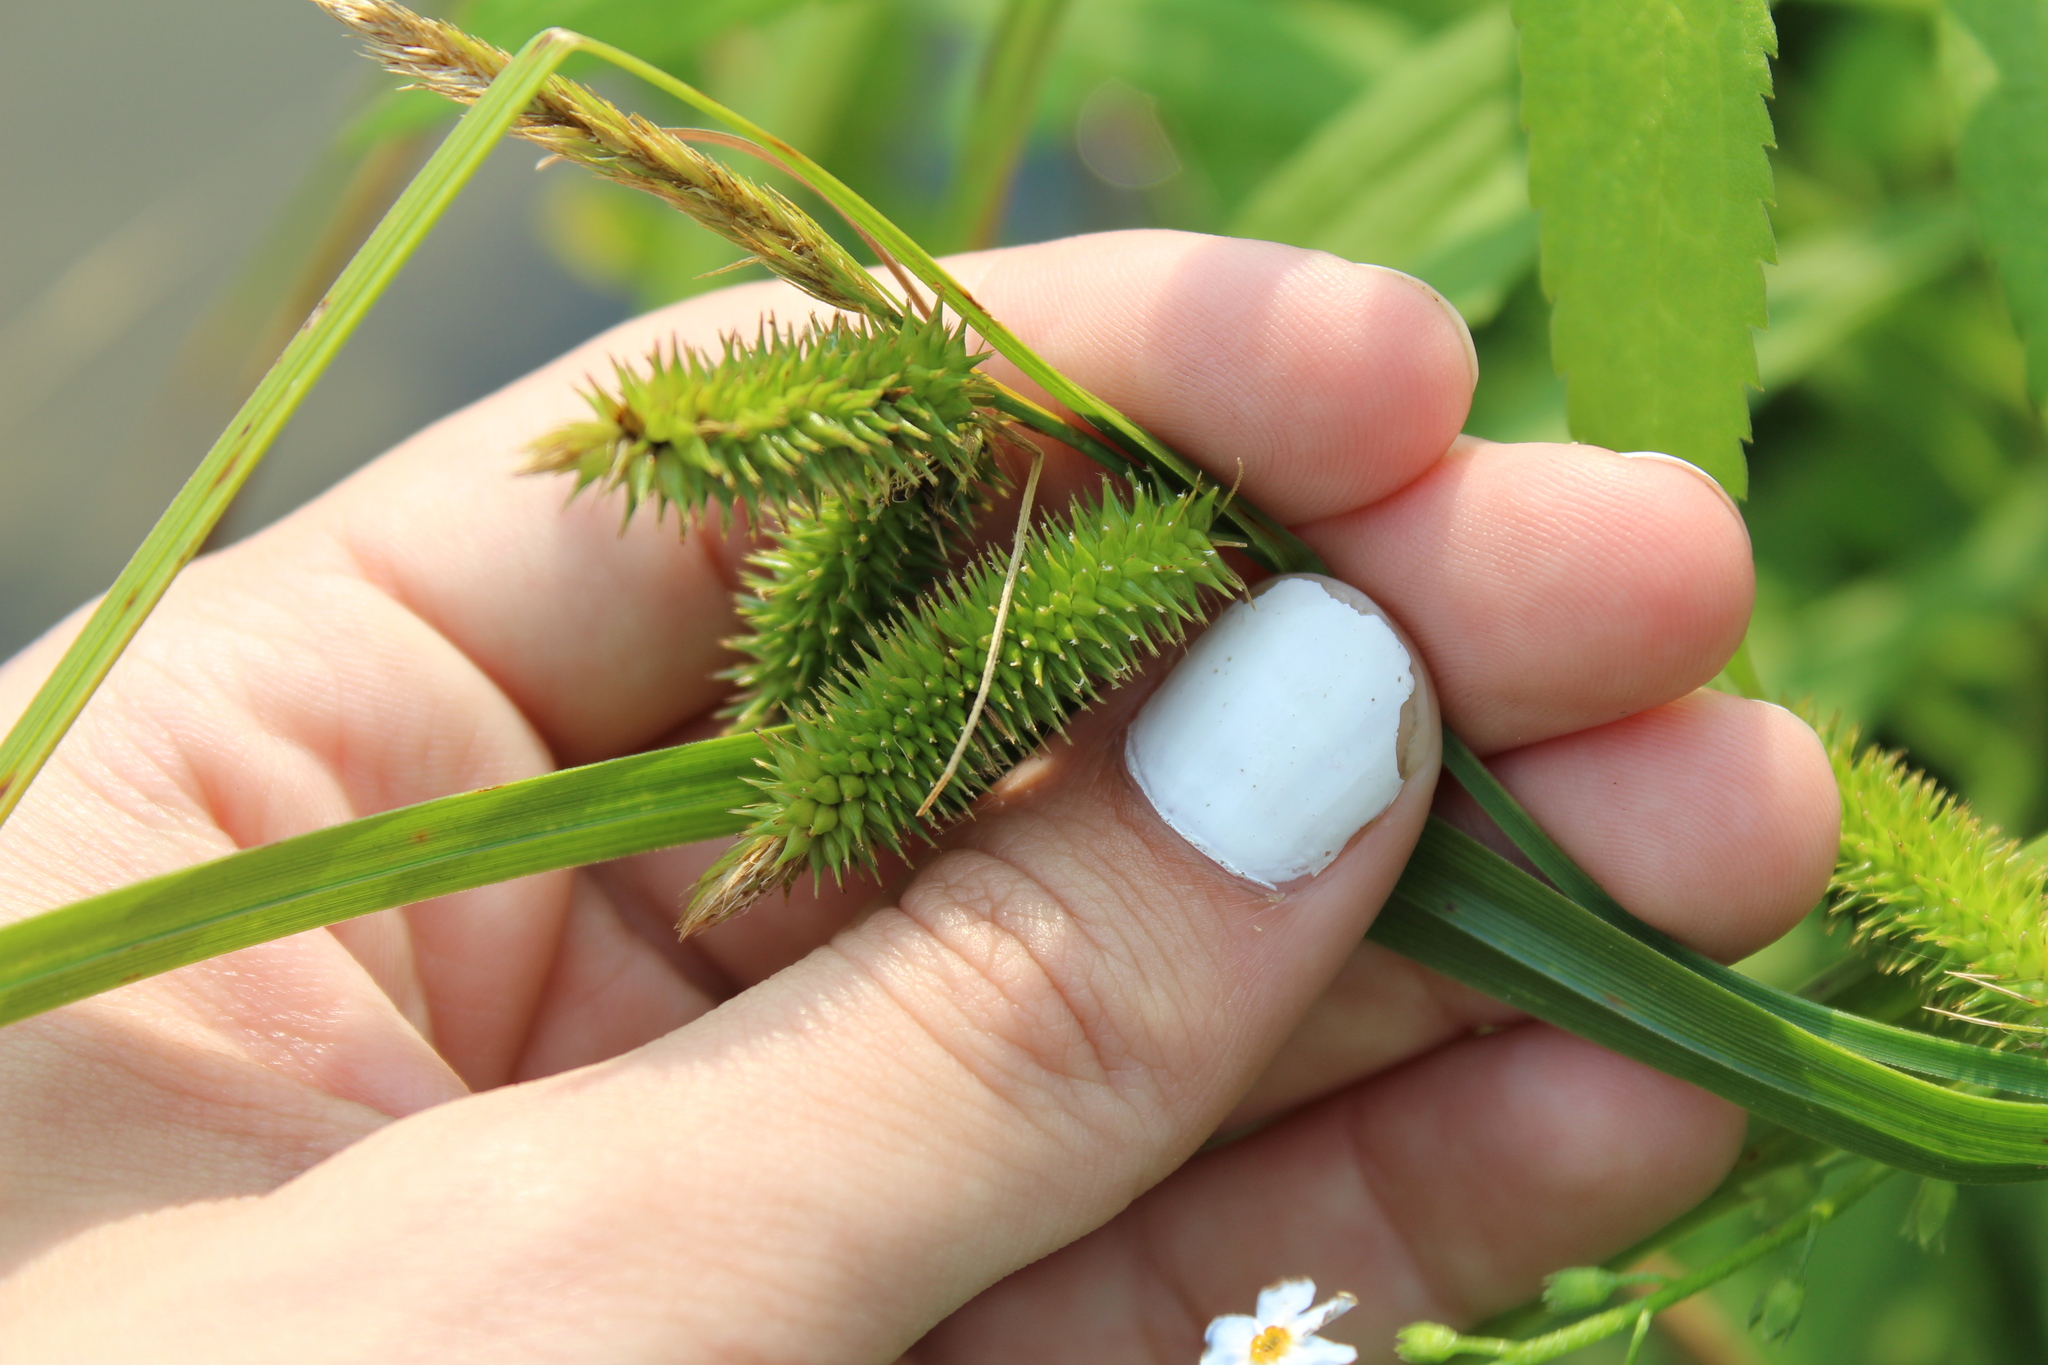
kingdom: Plantae
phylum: Tracheophyta
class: Liliopsida
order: Poales
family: Cyperaceae
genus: Carex
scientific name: Carex pseudocyperus
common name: Cyperus sedge
